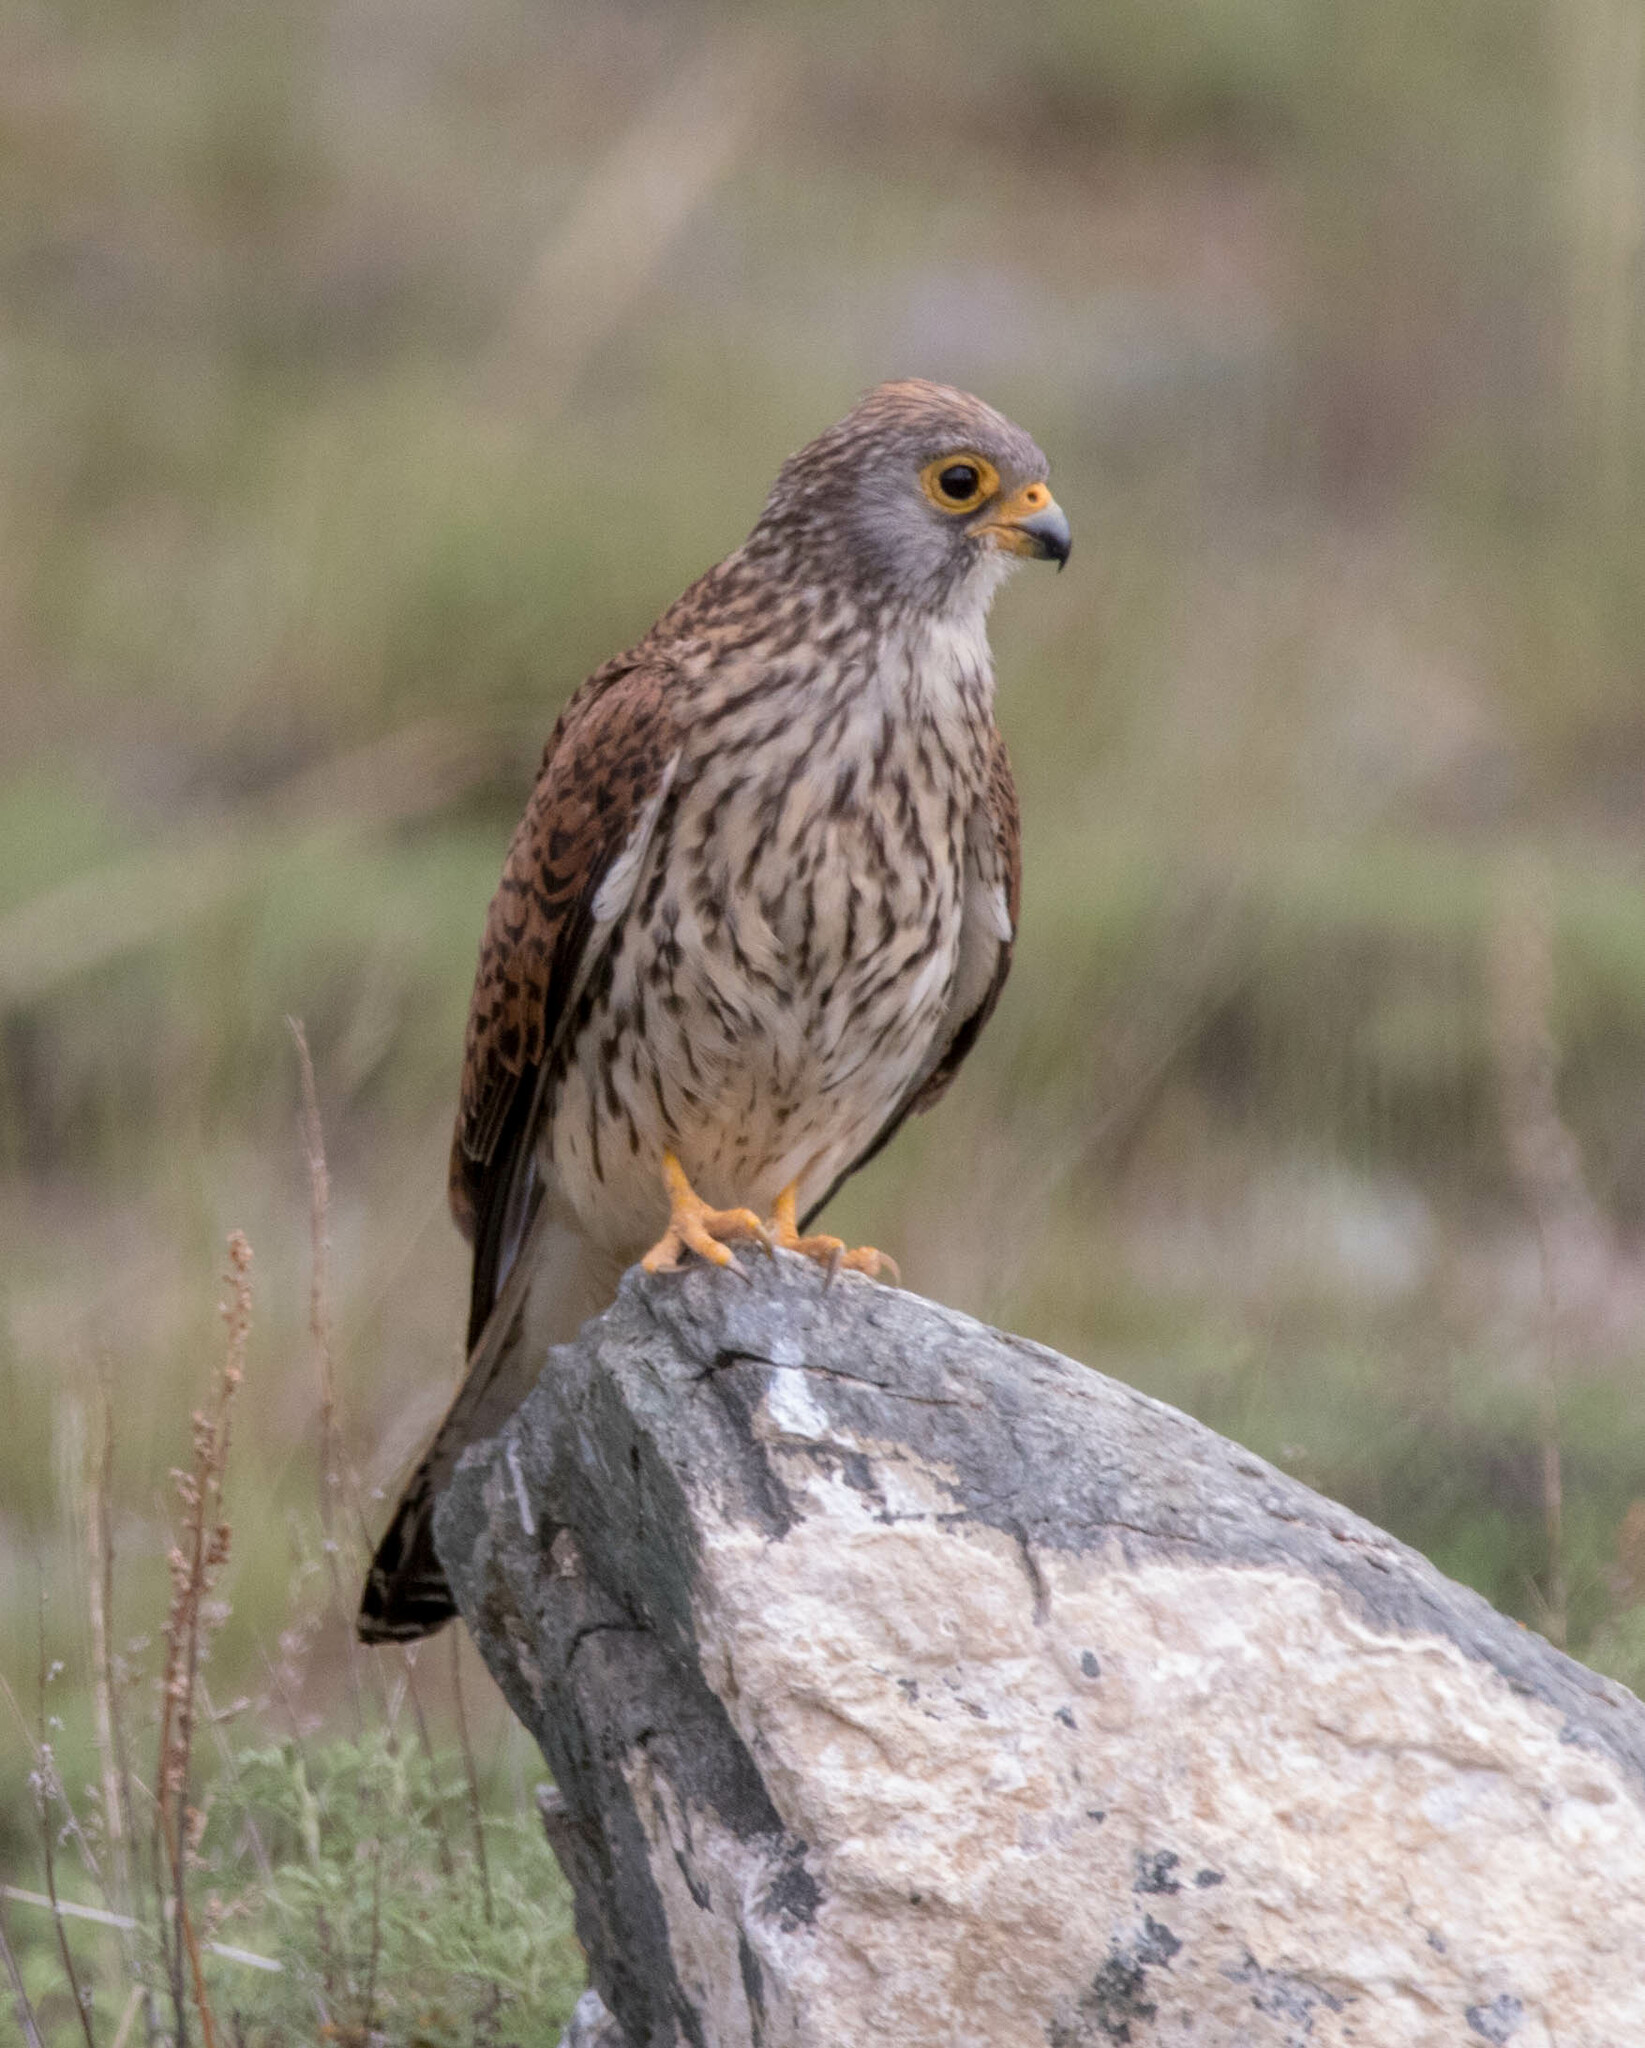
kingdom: Animalia
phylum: Chordata
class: Aves
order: Falconiformes
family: Falconidae
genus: Falco
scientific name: Falco naumanni
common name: Lesser kestrel
